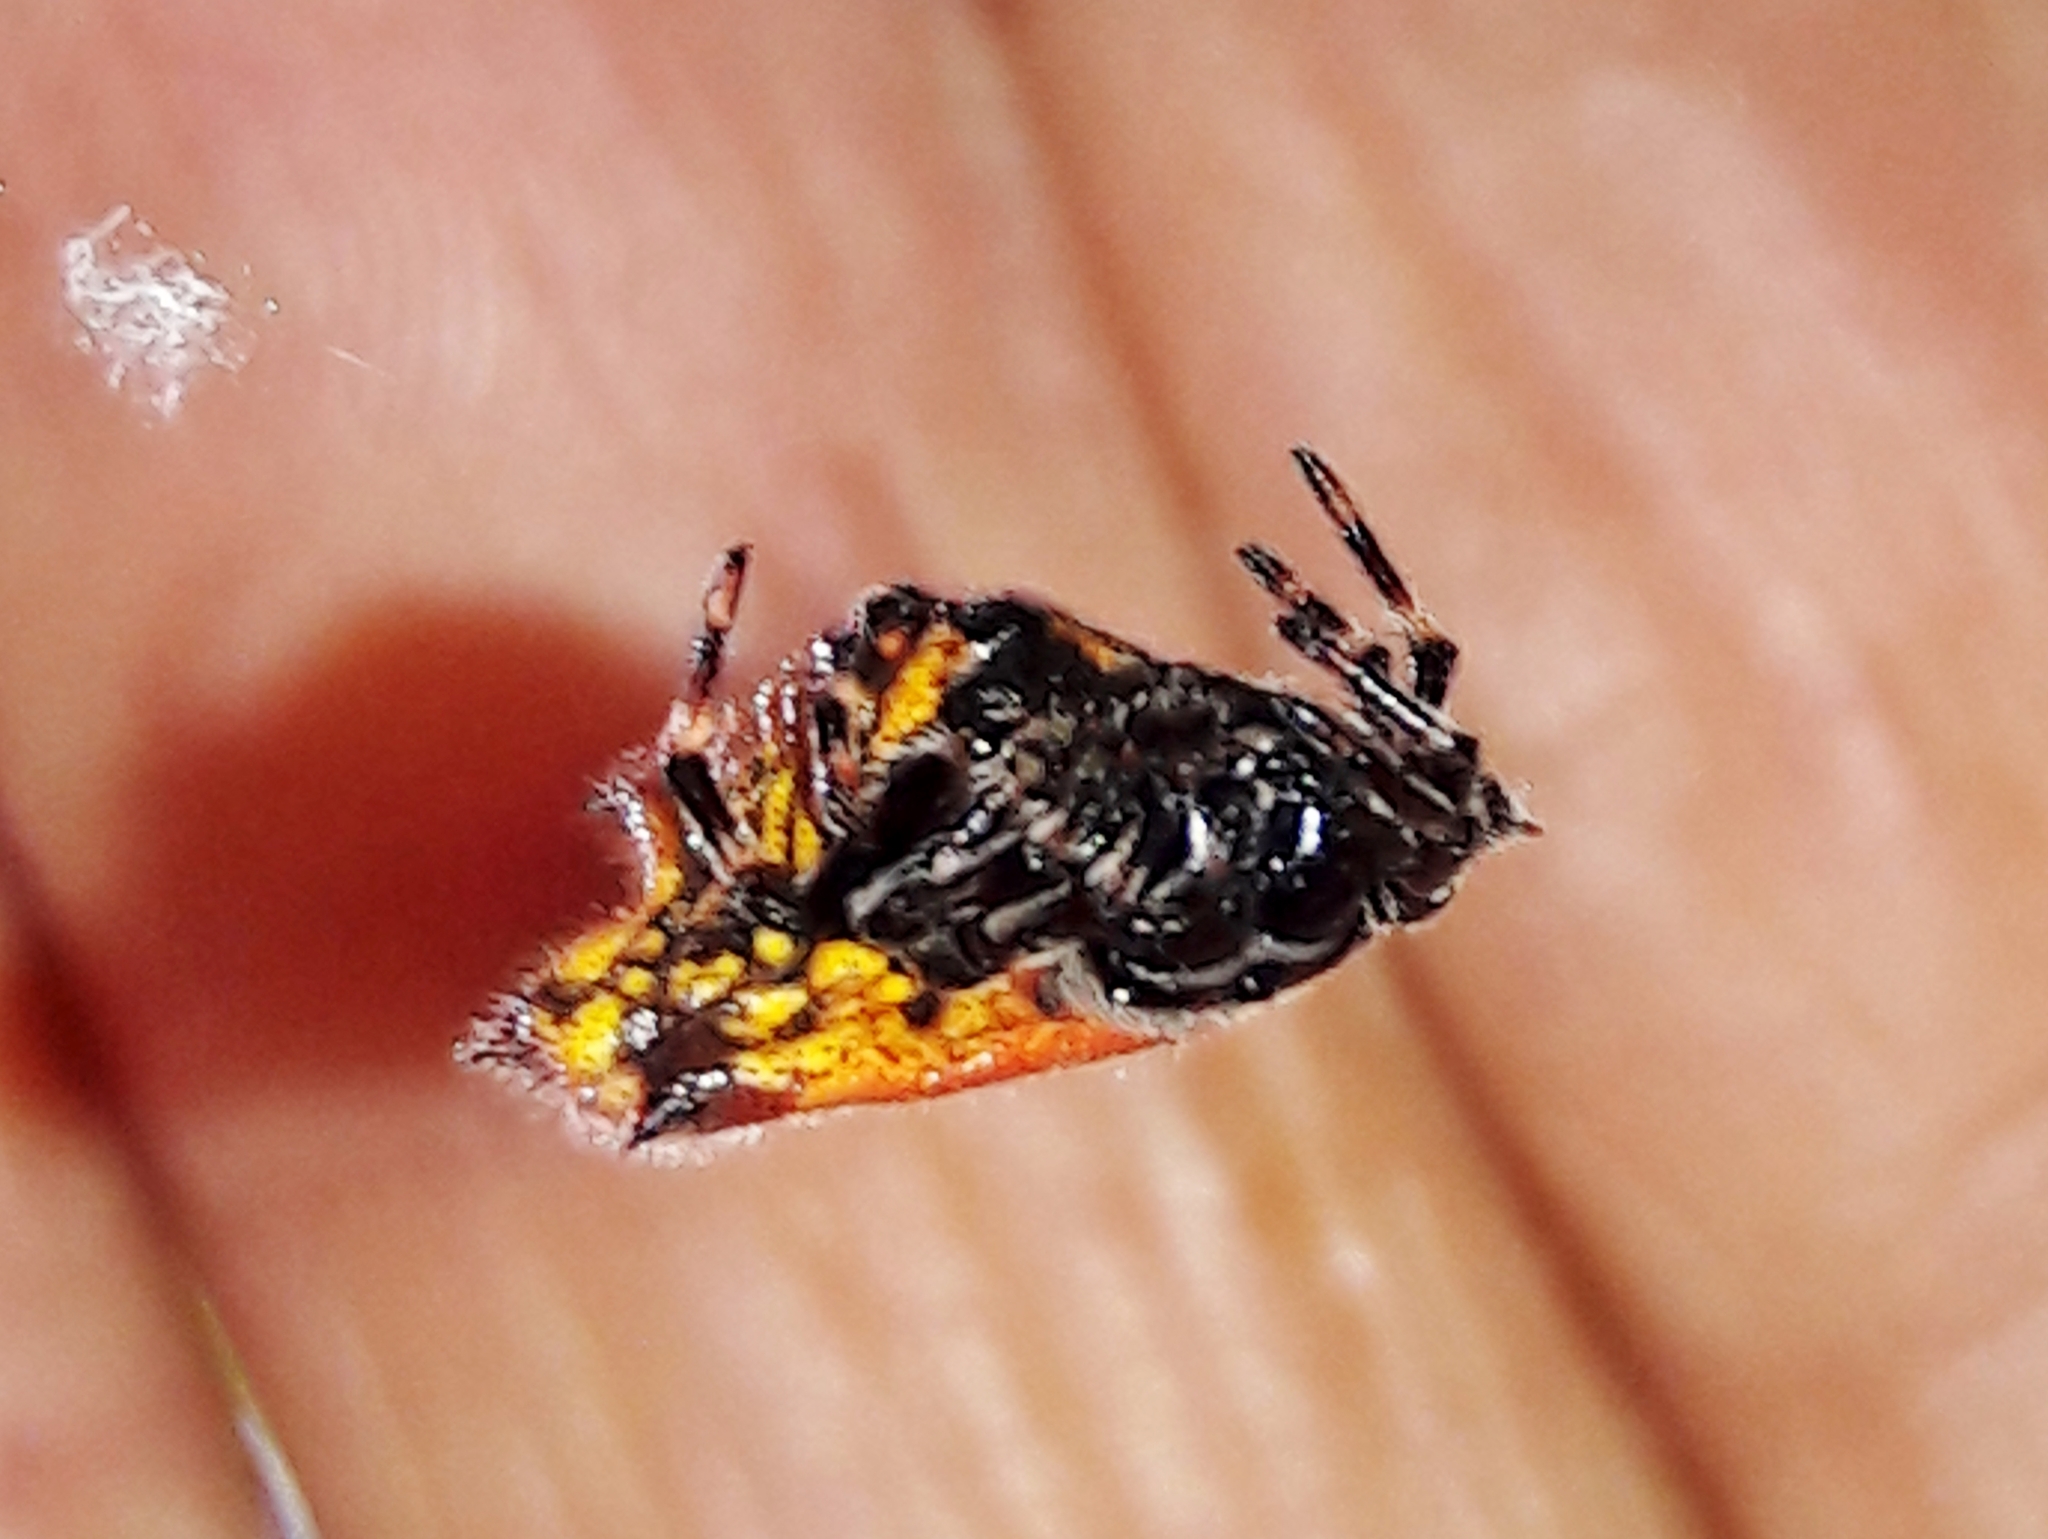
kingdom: Animalia
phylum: Arthropoda
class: Arachnida
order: Araneae
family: Araneidae
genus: Gasteracantha
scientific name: Gasteracantha cancriformis
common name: Orb weavers
